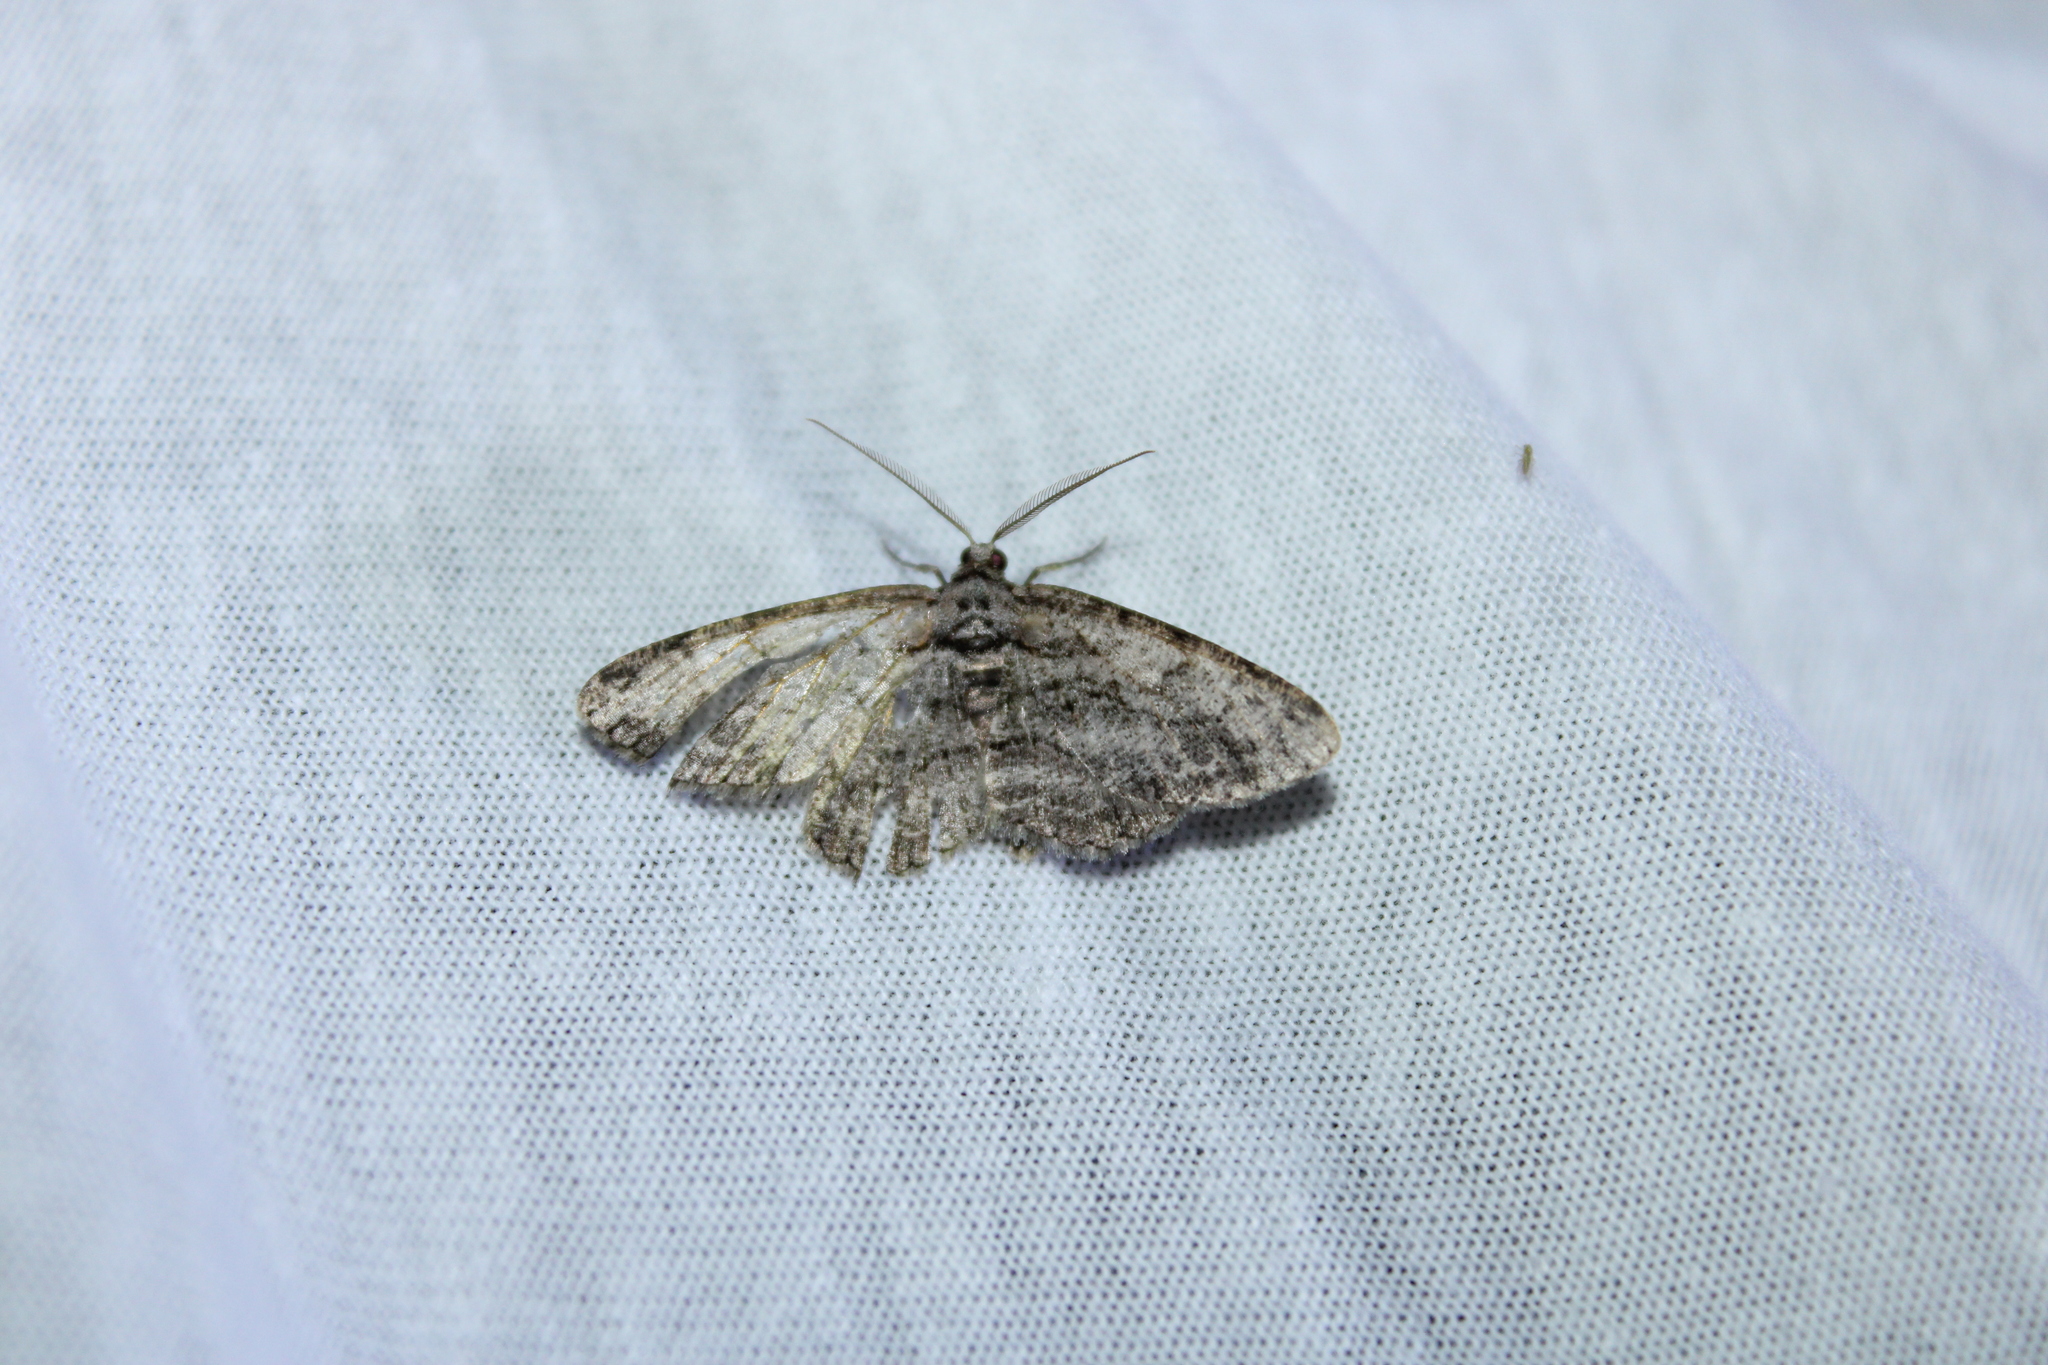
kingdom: Animalia
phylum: Arthropoda
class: Insecta
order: Lepidoptera
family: Geometridae
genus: Anavitrinella
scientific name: Anavitrinella pampinaria
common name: Common gray
